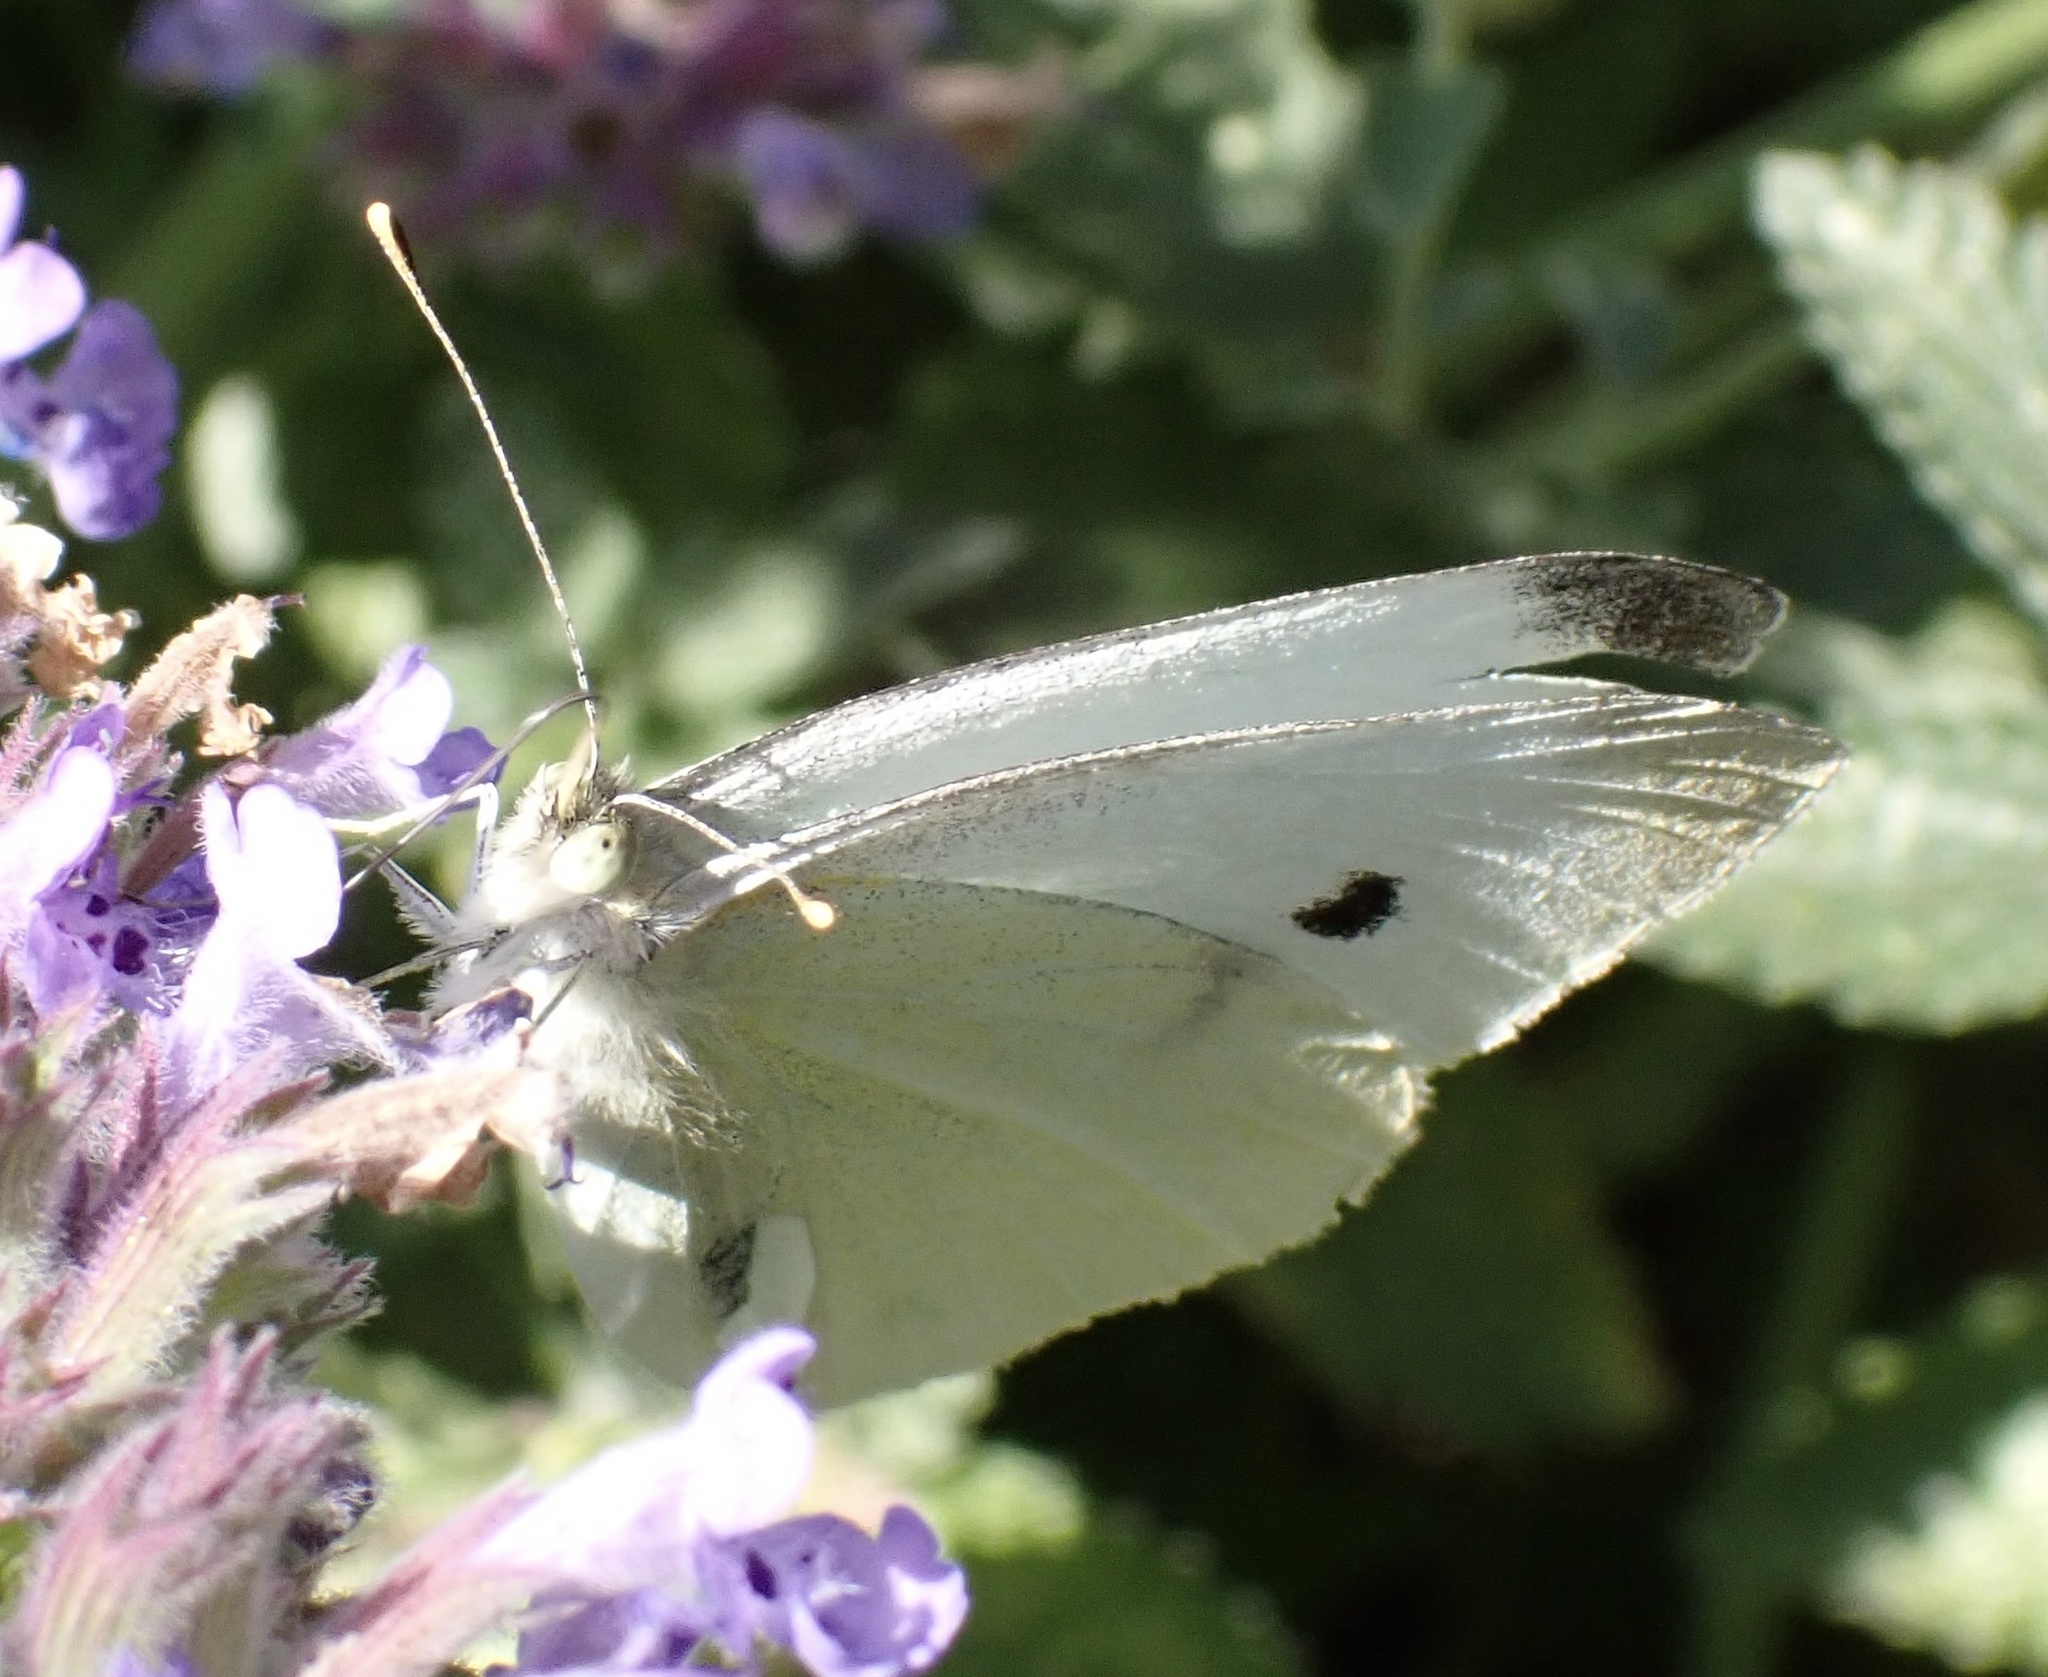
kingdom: Animalia
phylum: Arthropoda
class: Insecta
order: Lepidoptera
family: Pieridae
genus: Pieris
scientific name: Pieris rapae
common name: Small white
